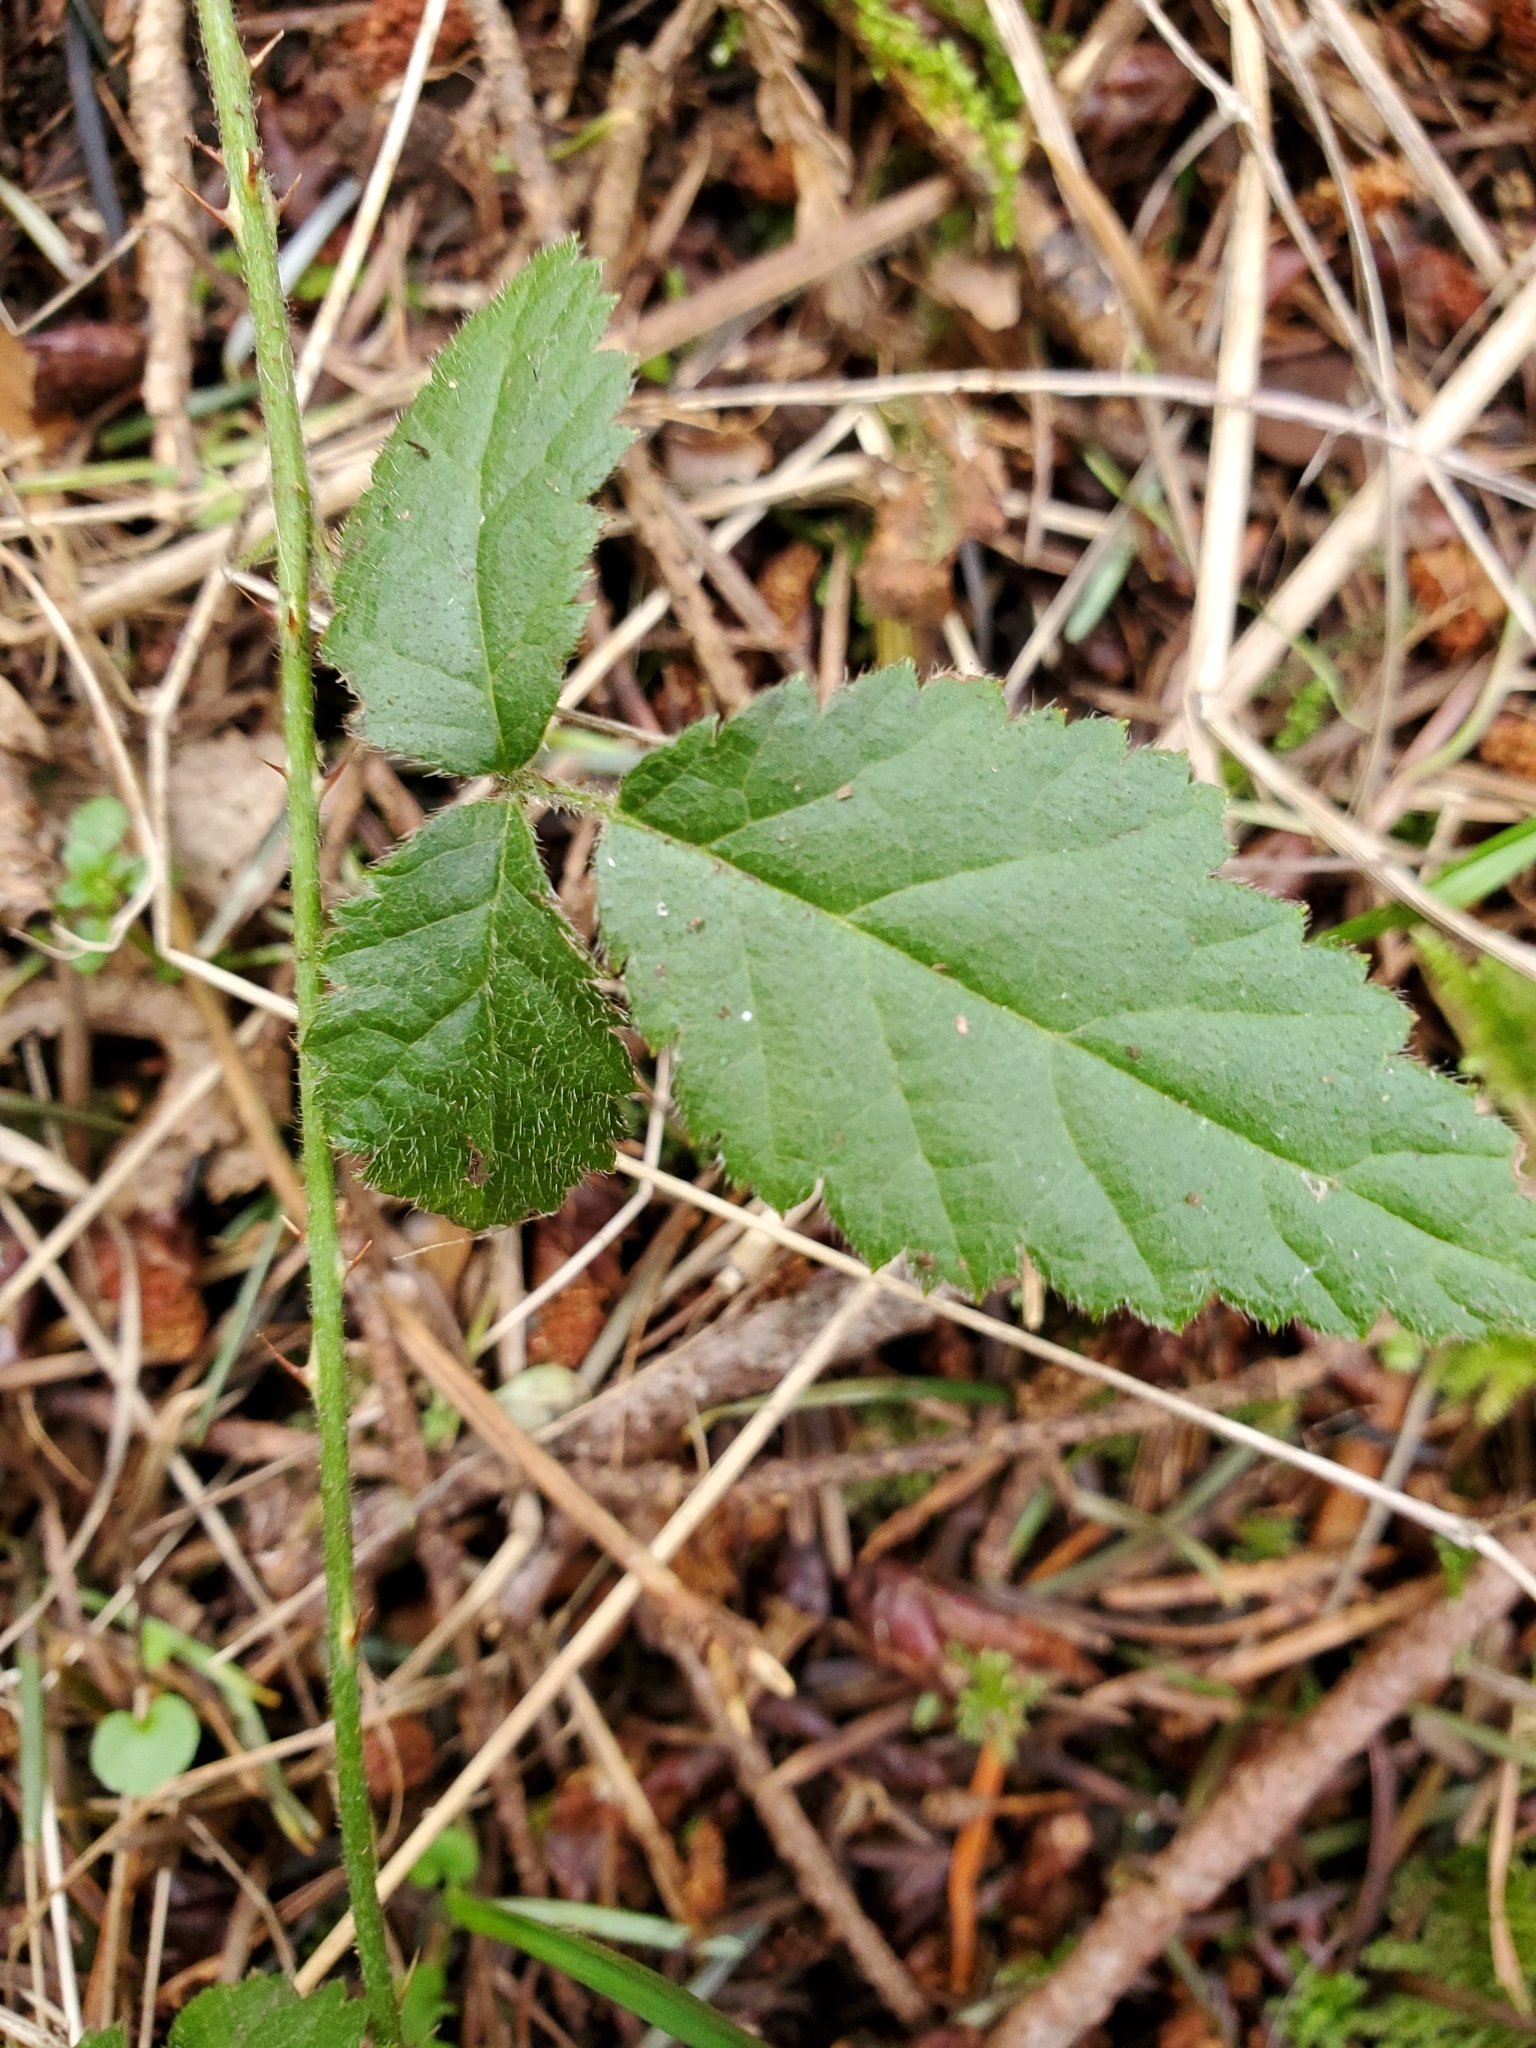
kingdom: Plantae
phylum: Tracheophyta
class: Magnoliopsida
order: Rosales
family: Rosaceae
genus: Rubus
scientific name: Rubus ursinus
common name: Pacific blackberry
